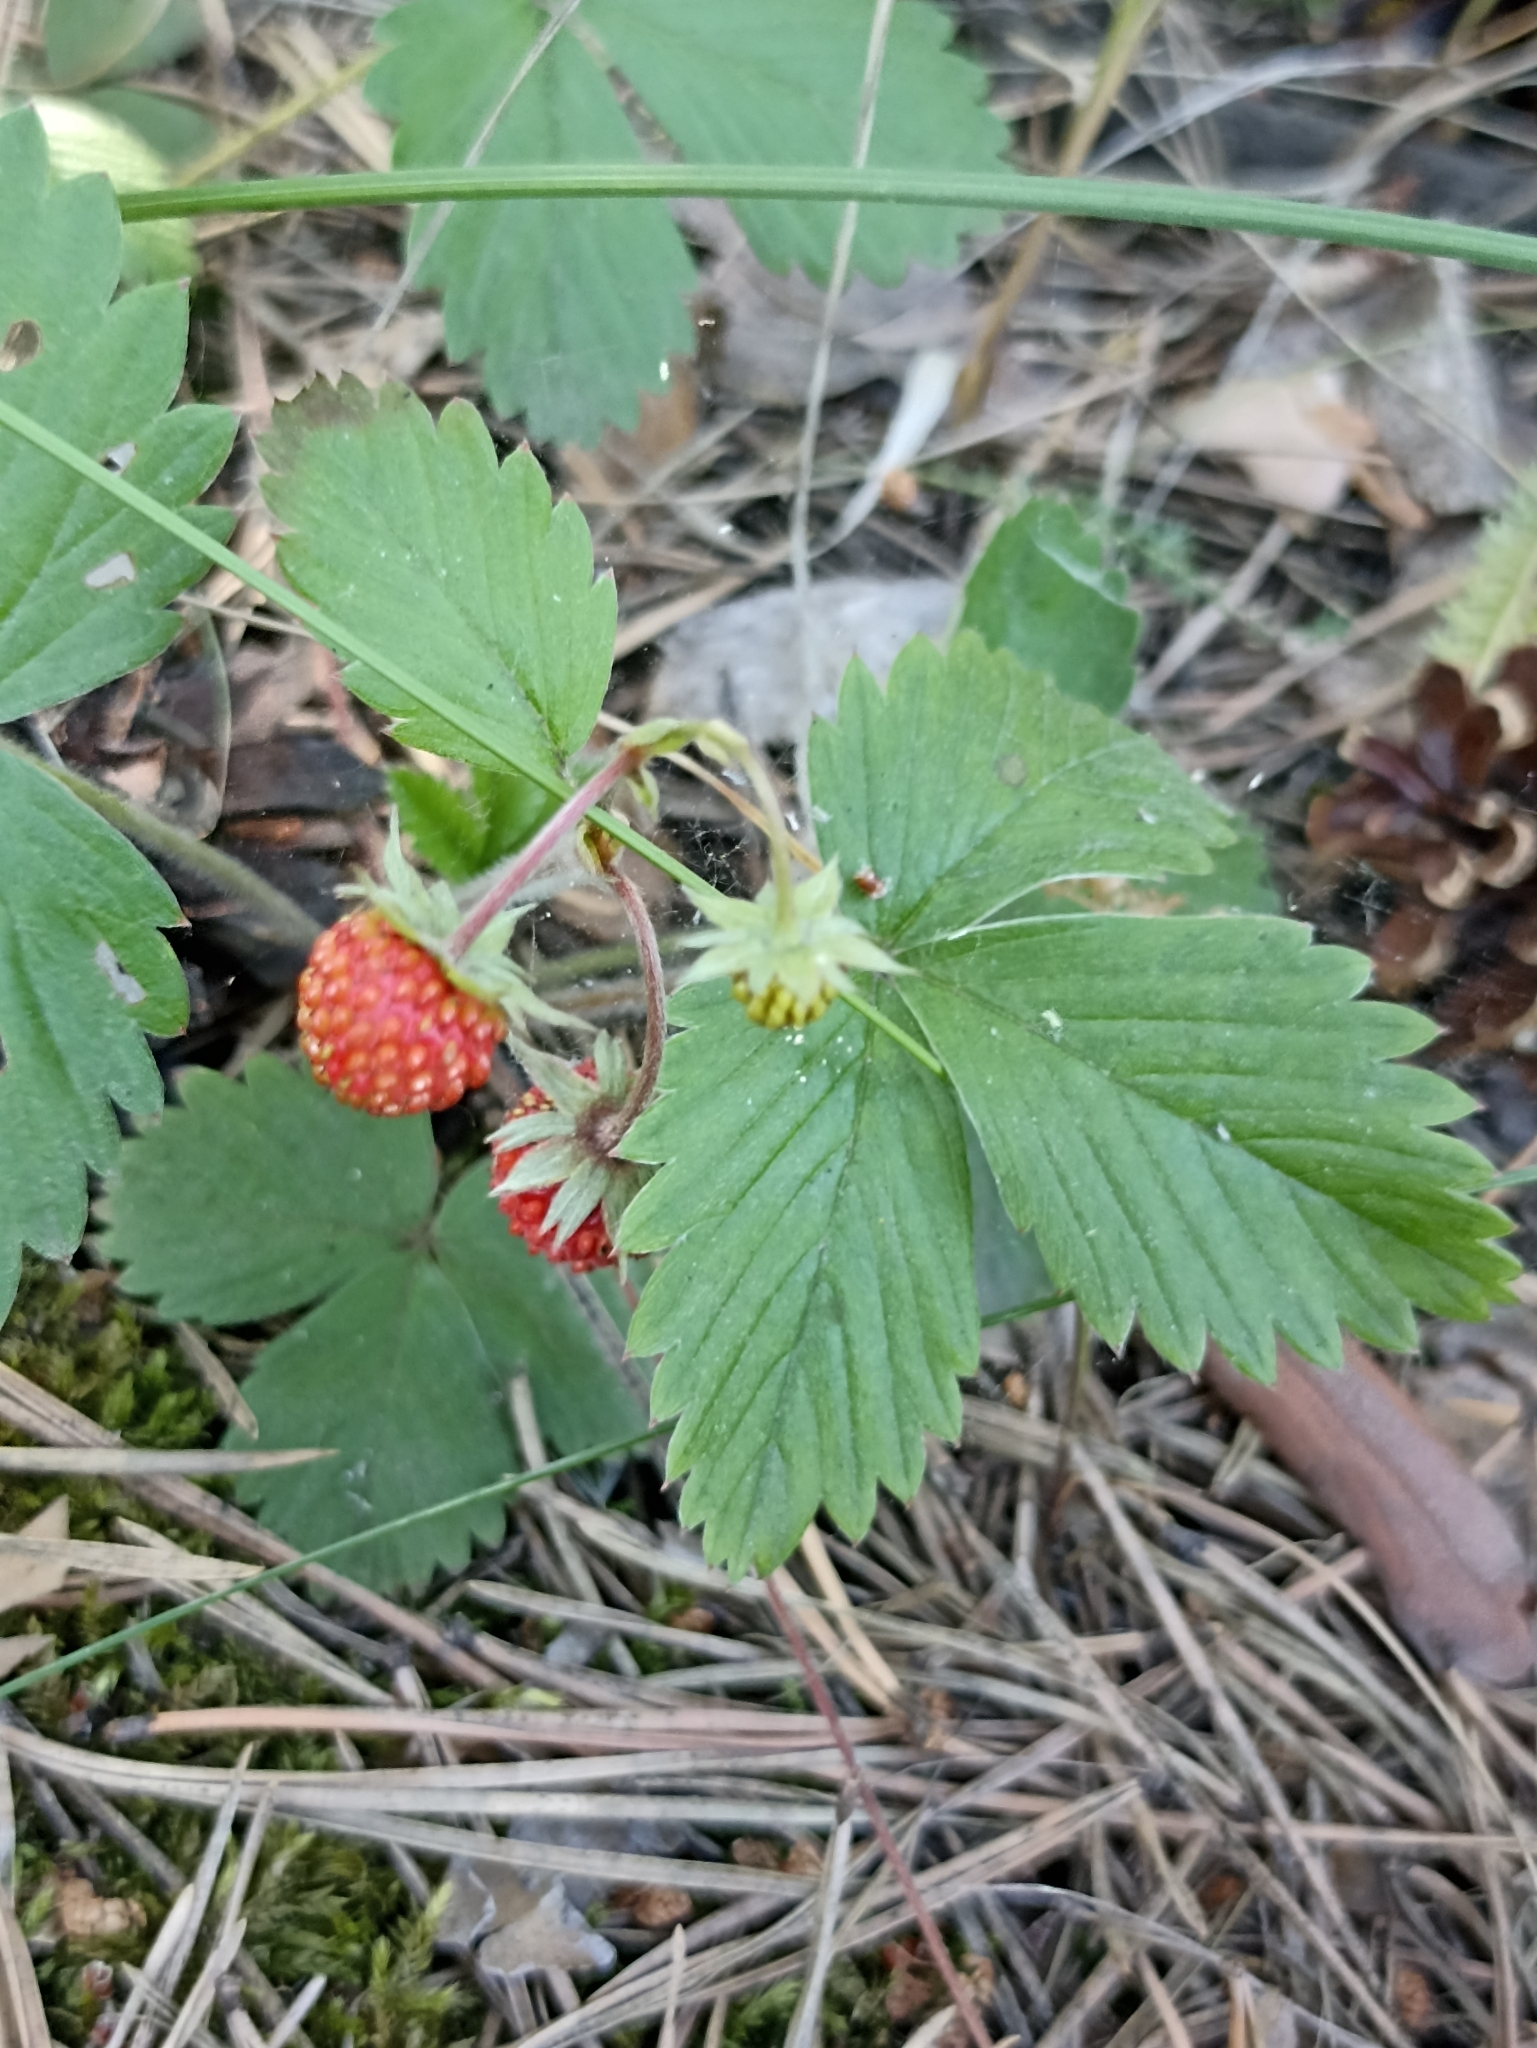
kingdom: Plantae
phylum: Tracheophyta
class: Magnoliopsida
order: Rosales
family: Rosaceae
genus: Fragaria
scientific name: Fragaria vesca
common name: Wild strawberry
